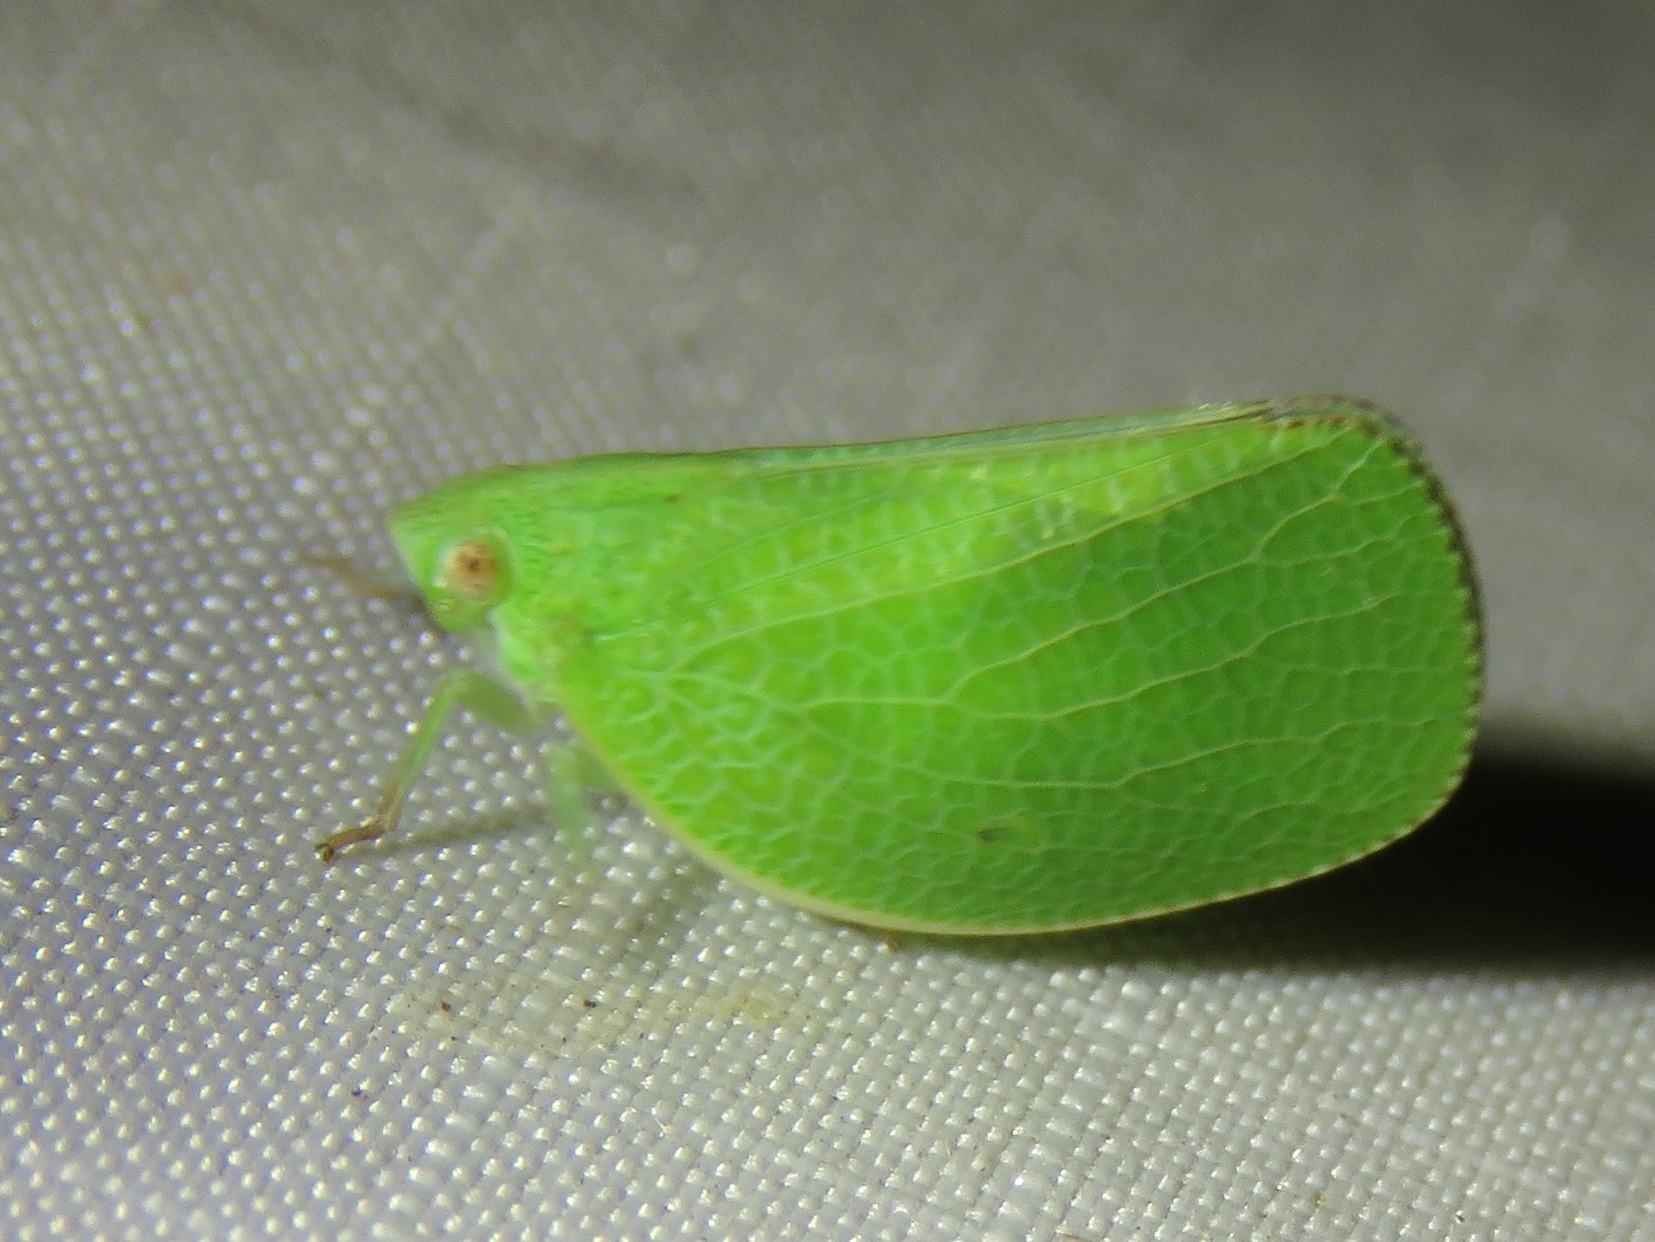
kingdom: Animalia
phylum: Arthropoda
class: Insecta
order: Hemiptera
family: Acanaloniidae
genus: Acanalonia
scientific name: Acanalonia conica
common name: Green cone-headed planthopper
